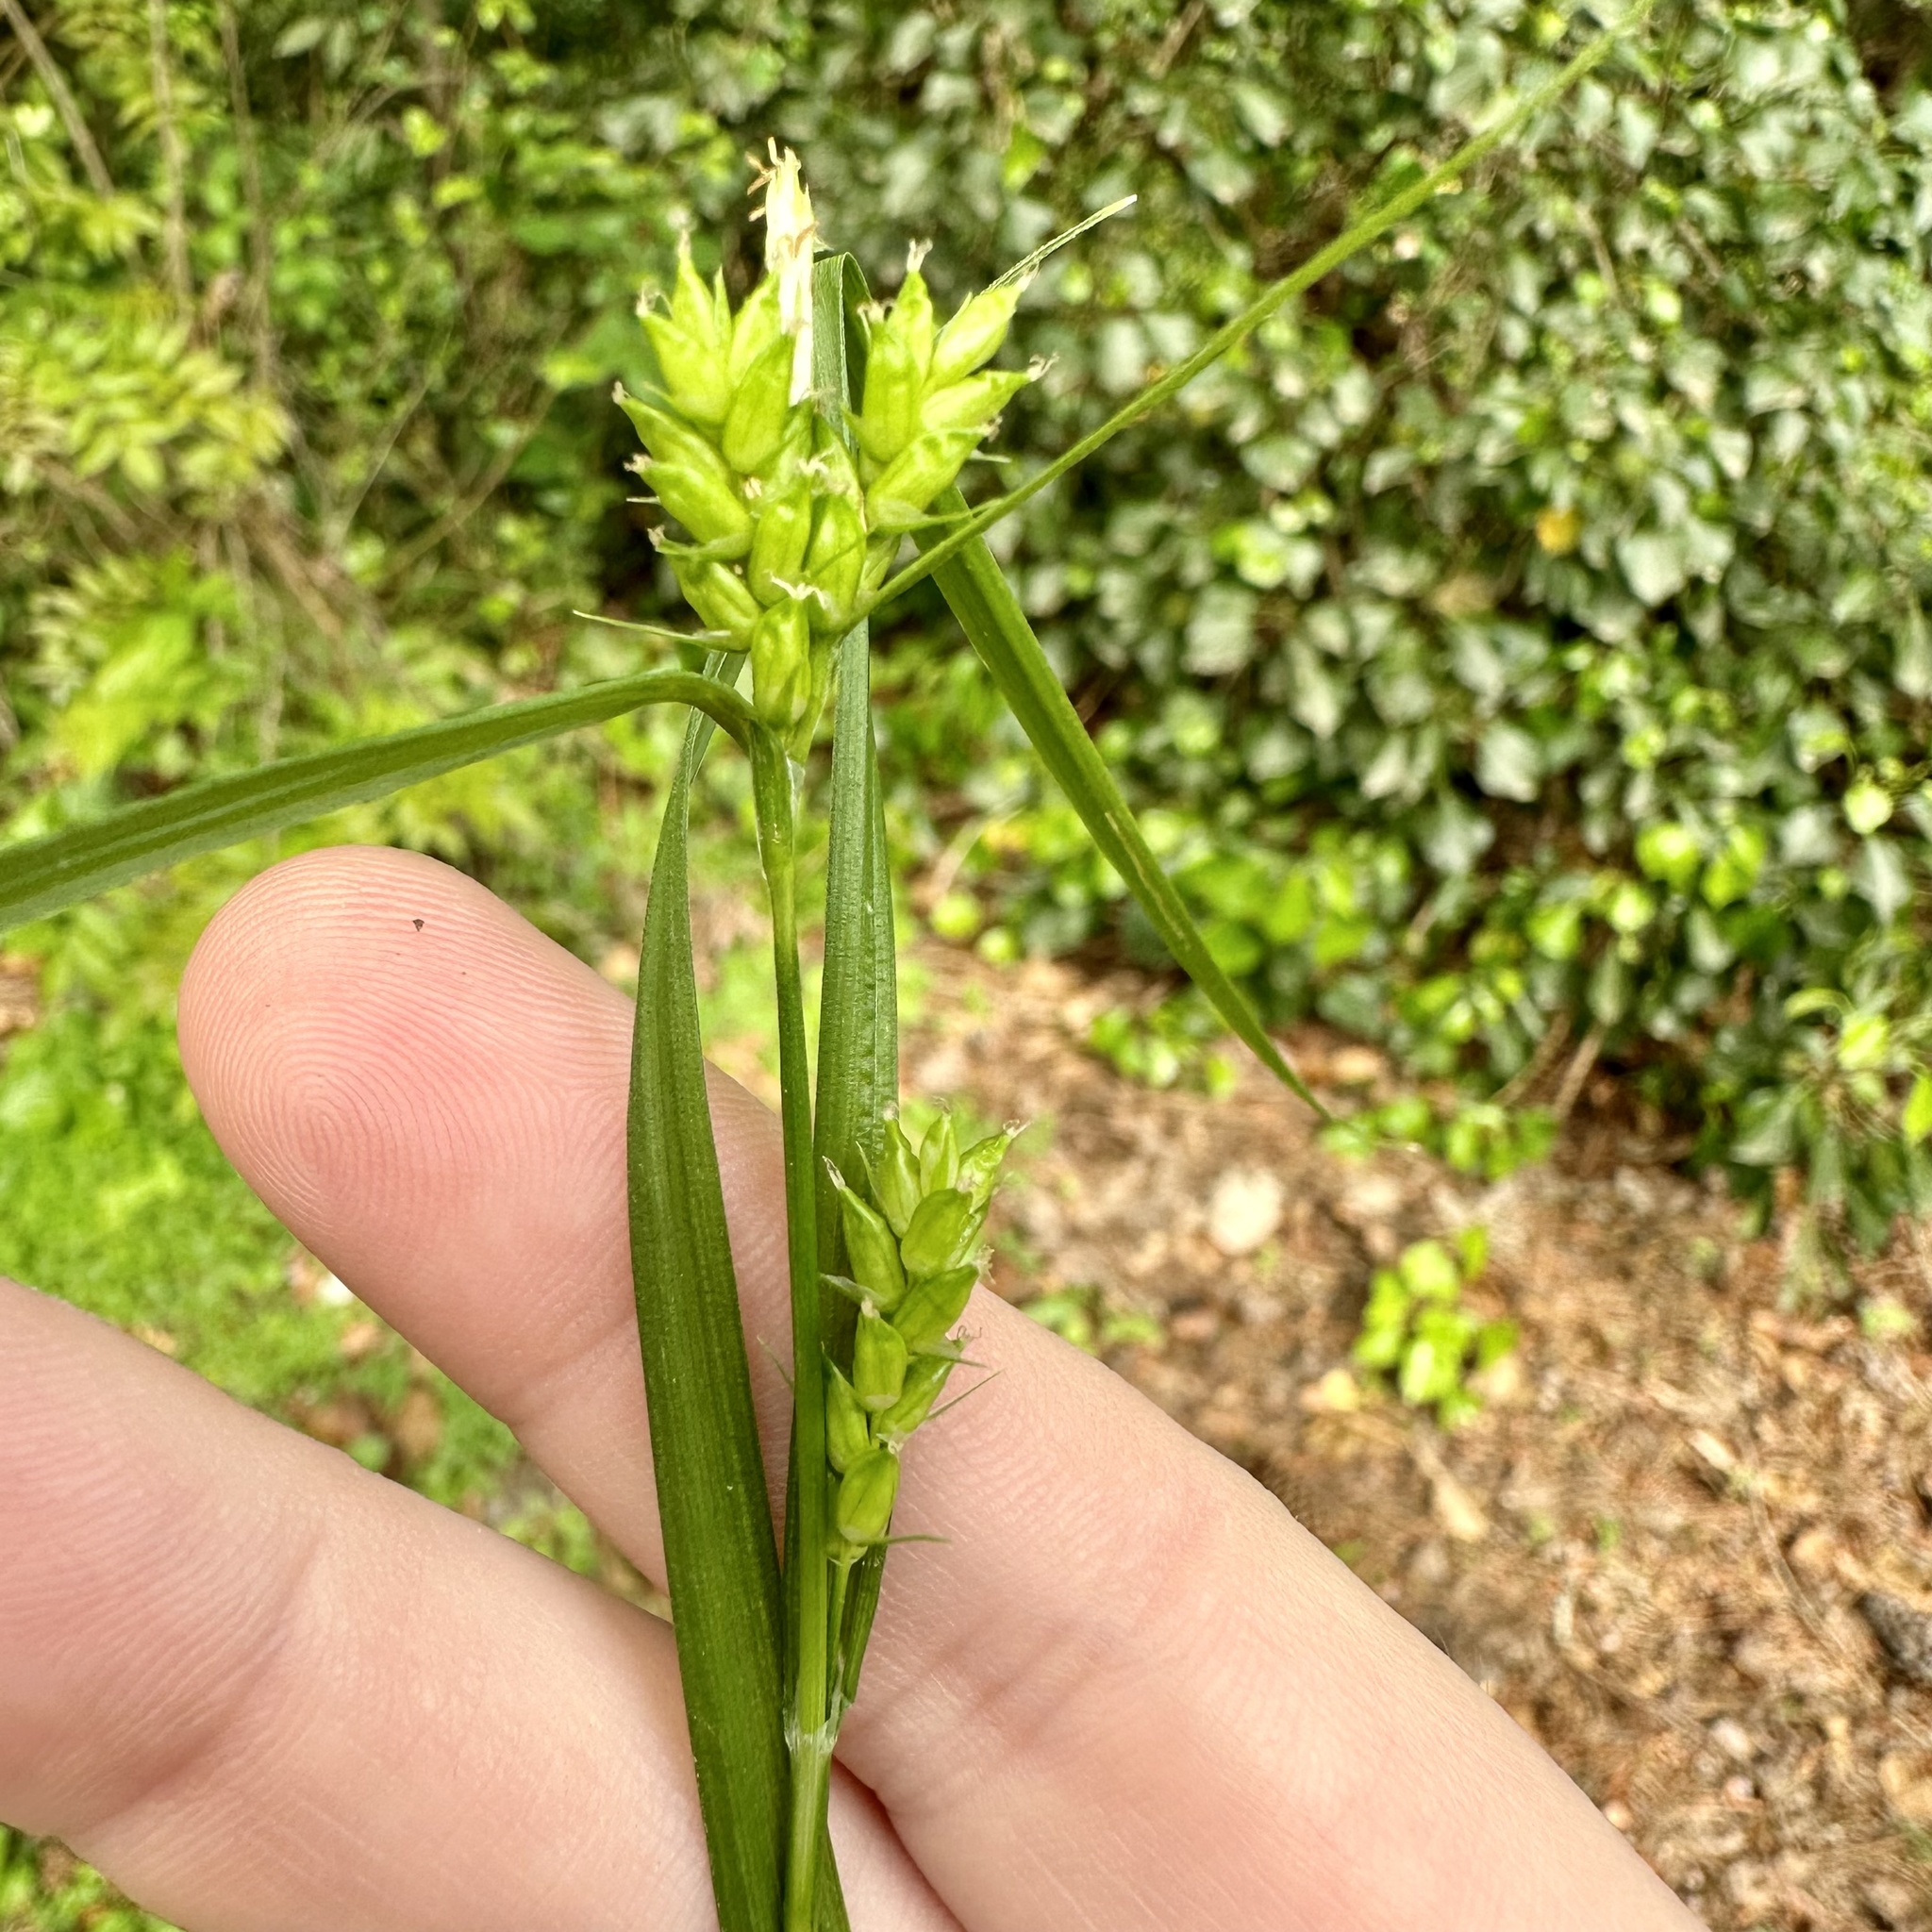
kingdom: Plantae
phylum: Tracheophyta
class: Liliopsida
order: Poales
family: Cyperaceae
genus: Carex
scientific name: Carex amphibola
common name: Amphibious sedge
